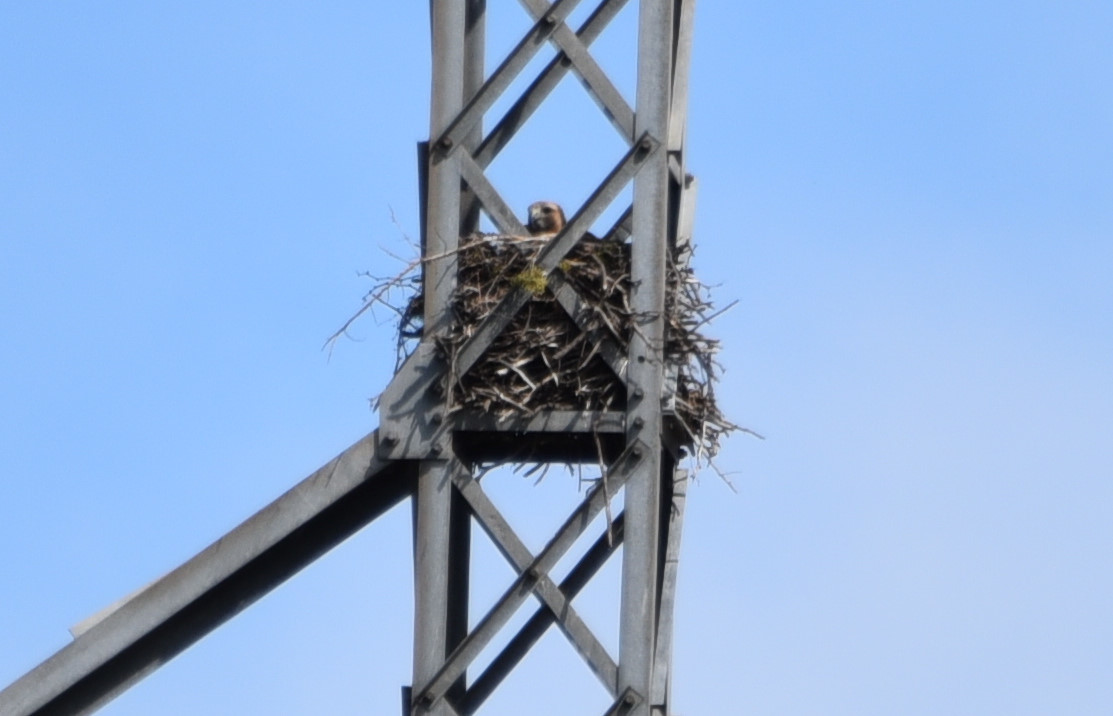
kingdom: Animalia
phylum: Chordata
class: Aves
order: Accipitriformes
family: Accipitridae
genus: Buteo
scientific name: Buteo jamaicensis
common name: Red-tailed hawk
